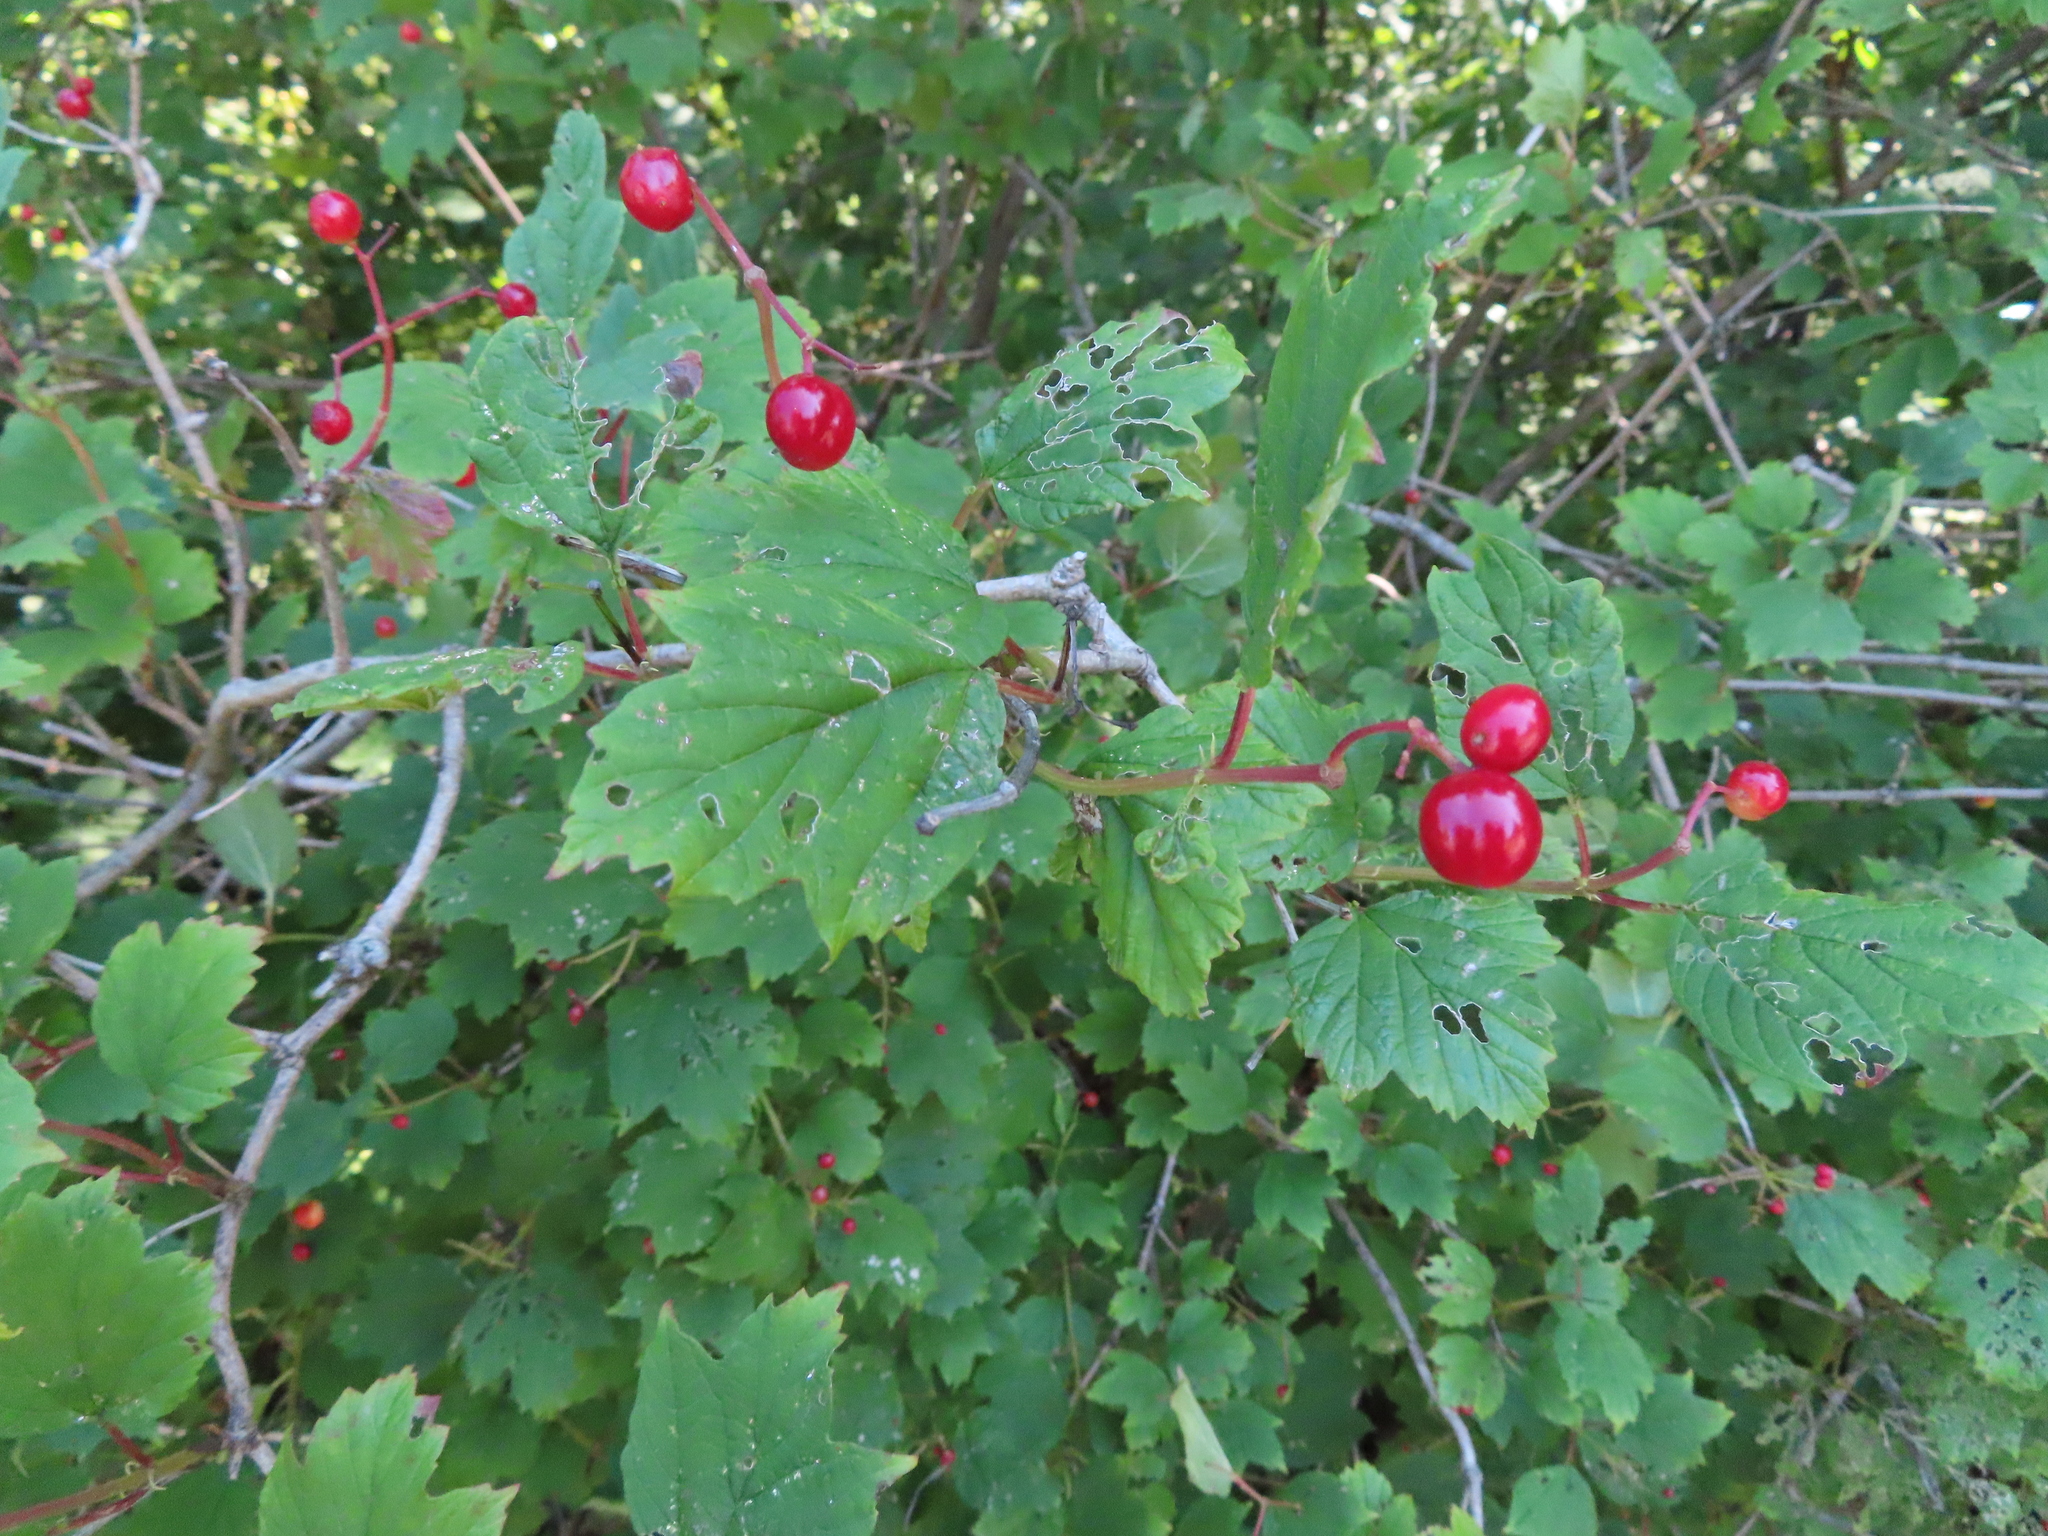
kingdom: Plantae
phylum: Tracheophyta
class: Magnoliopsida
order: Dipsacales
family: Viburnaceae
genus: Viburnum
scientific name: Viburnum opulus
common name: Guelder-rose
